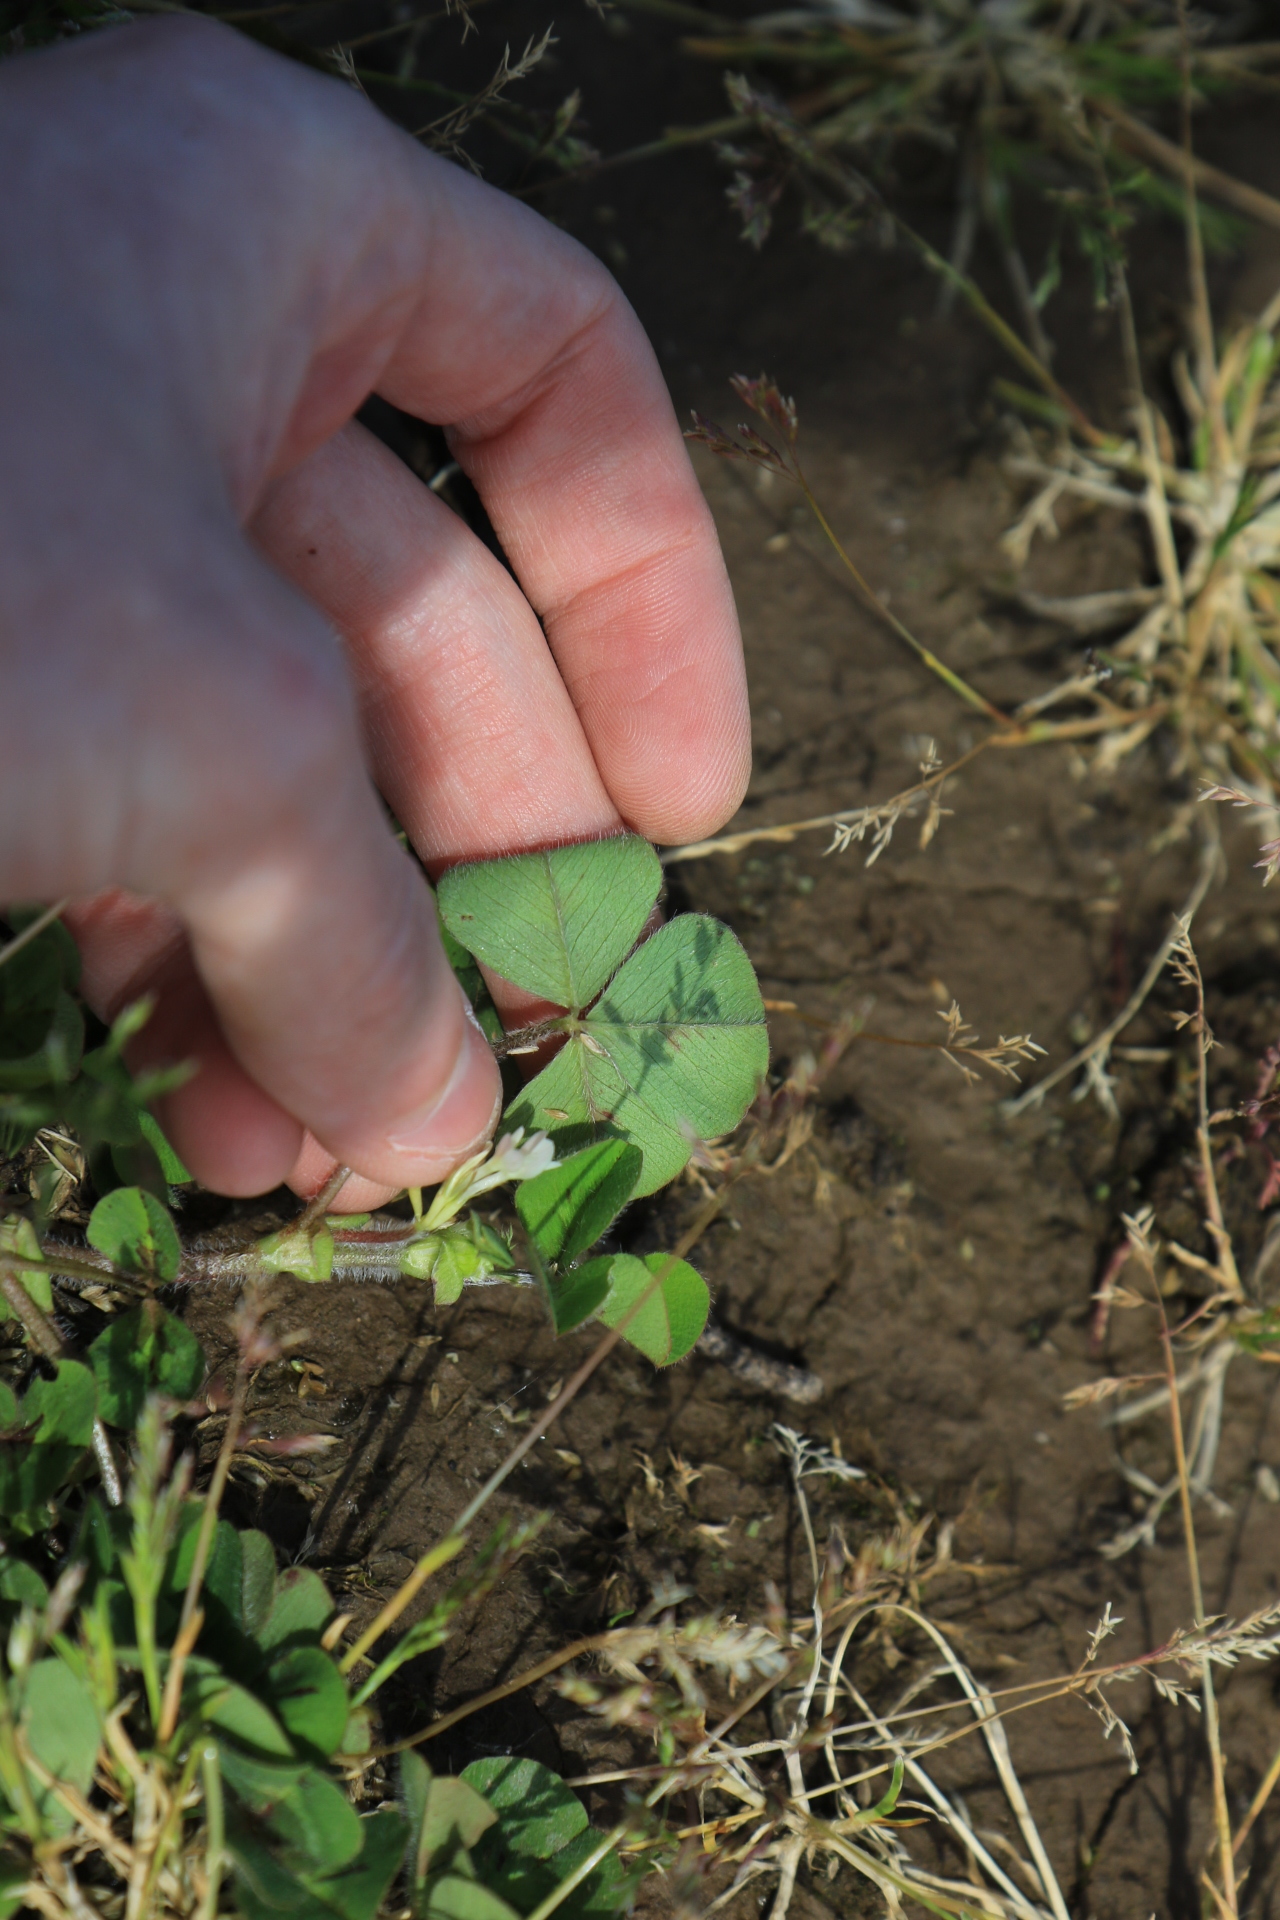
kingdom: Plantae
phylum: Tracheophyta
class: Magnoliopsida
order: Fabales
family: Fabaceae
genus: Trifolium
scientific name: Trifolium subterraneum
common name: Subterranean clover
